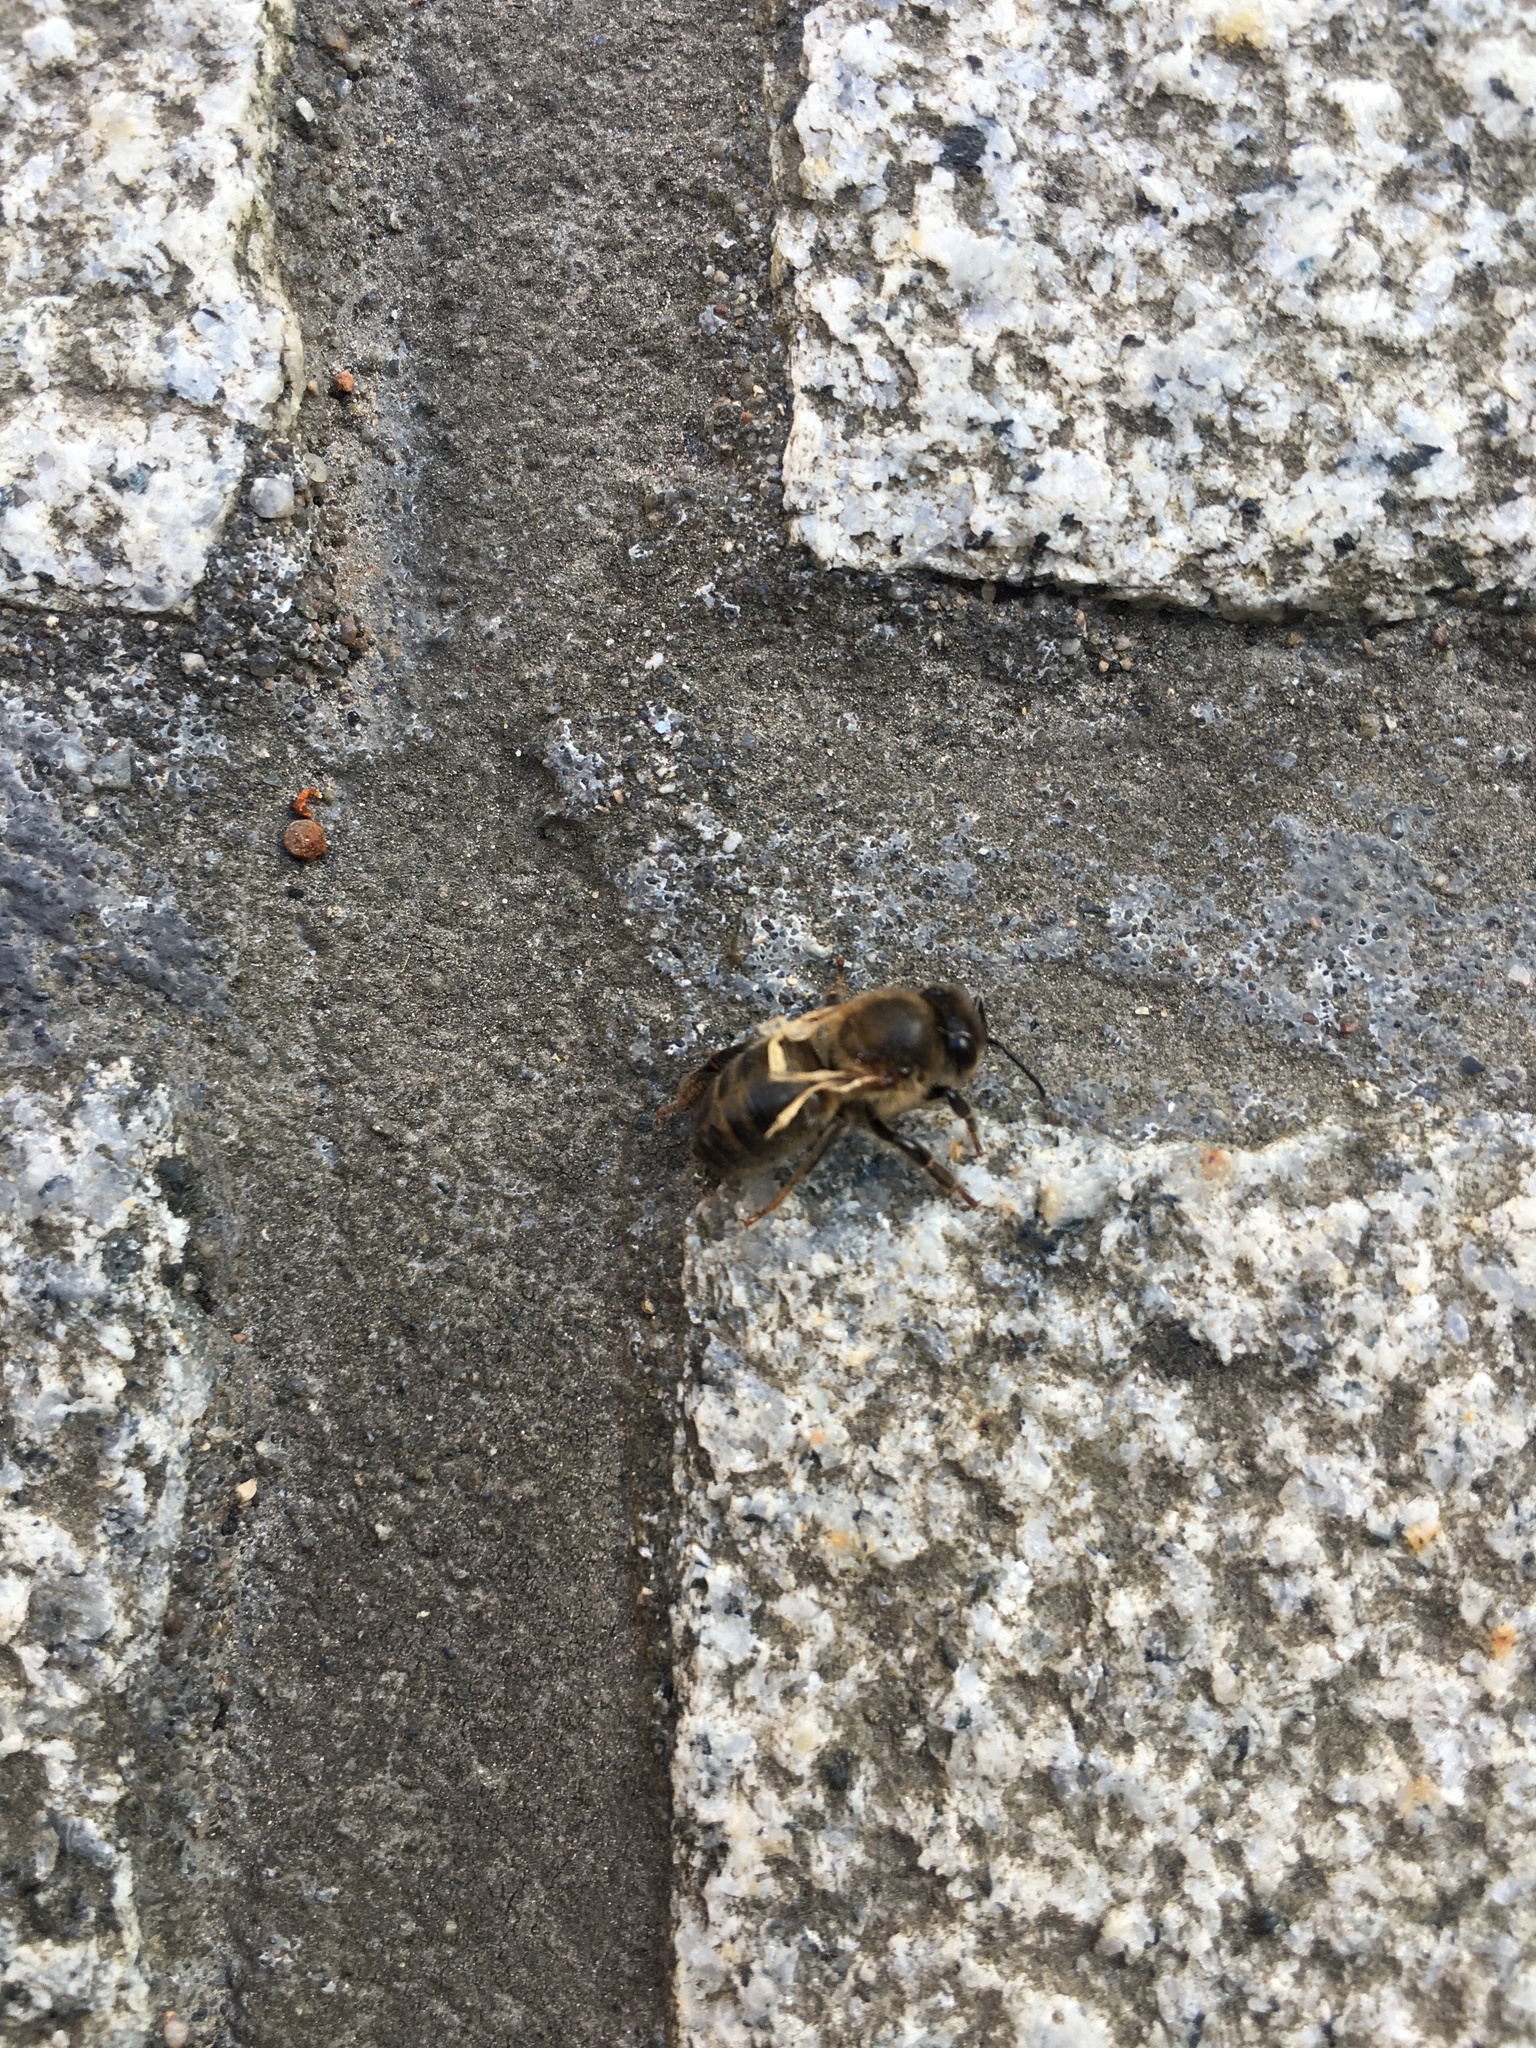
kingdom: Animalia
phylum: Arthropoda
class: Insecta
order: Hymenoptera
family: Apidae
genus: Apis
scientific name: Apis mellifera
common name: Honey bee
